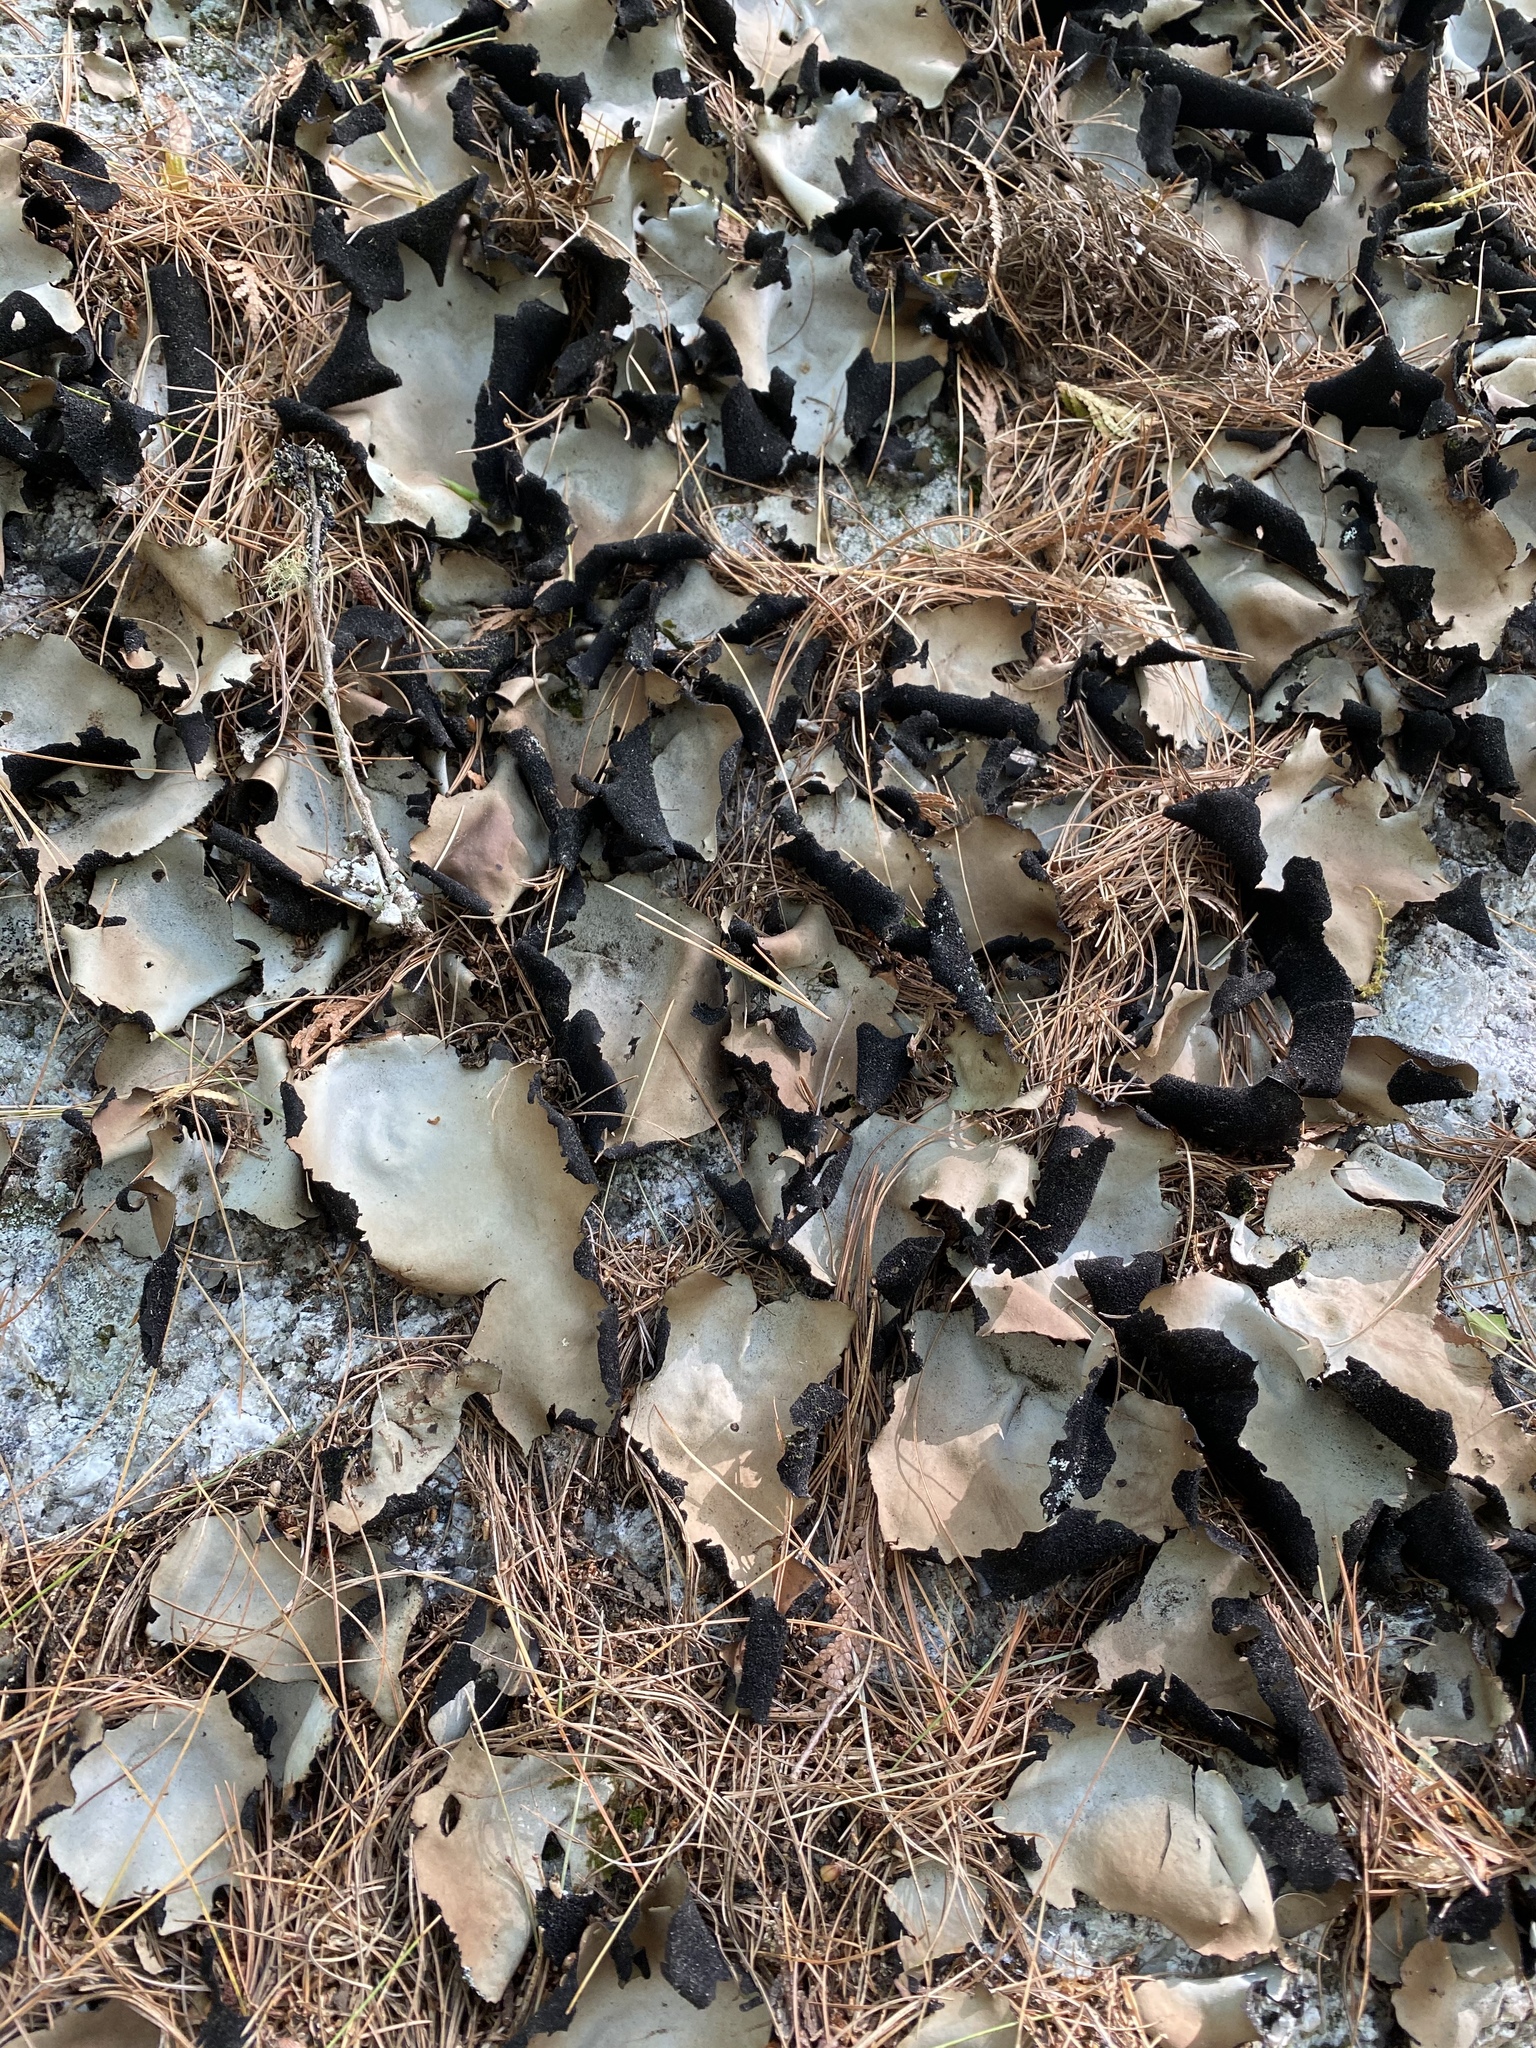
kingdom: Fungi
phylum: Ascomycota
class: Lecanoromycetes
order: Umbilicariales
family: Umbilicariaceae
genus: Umbilicaria
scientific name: Umbilicaria mammulata
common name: Smooth rock tripe
